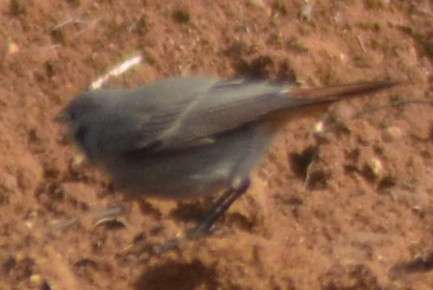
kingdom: Animalia
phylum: Chordata
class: Aves
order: Passeriformes
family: Muscicapidae
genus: Phoenicurus
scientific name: Phoenicurus ochruros
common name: Black redstart
